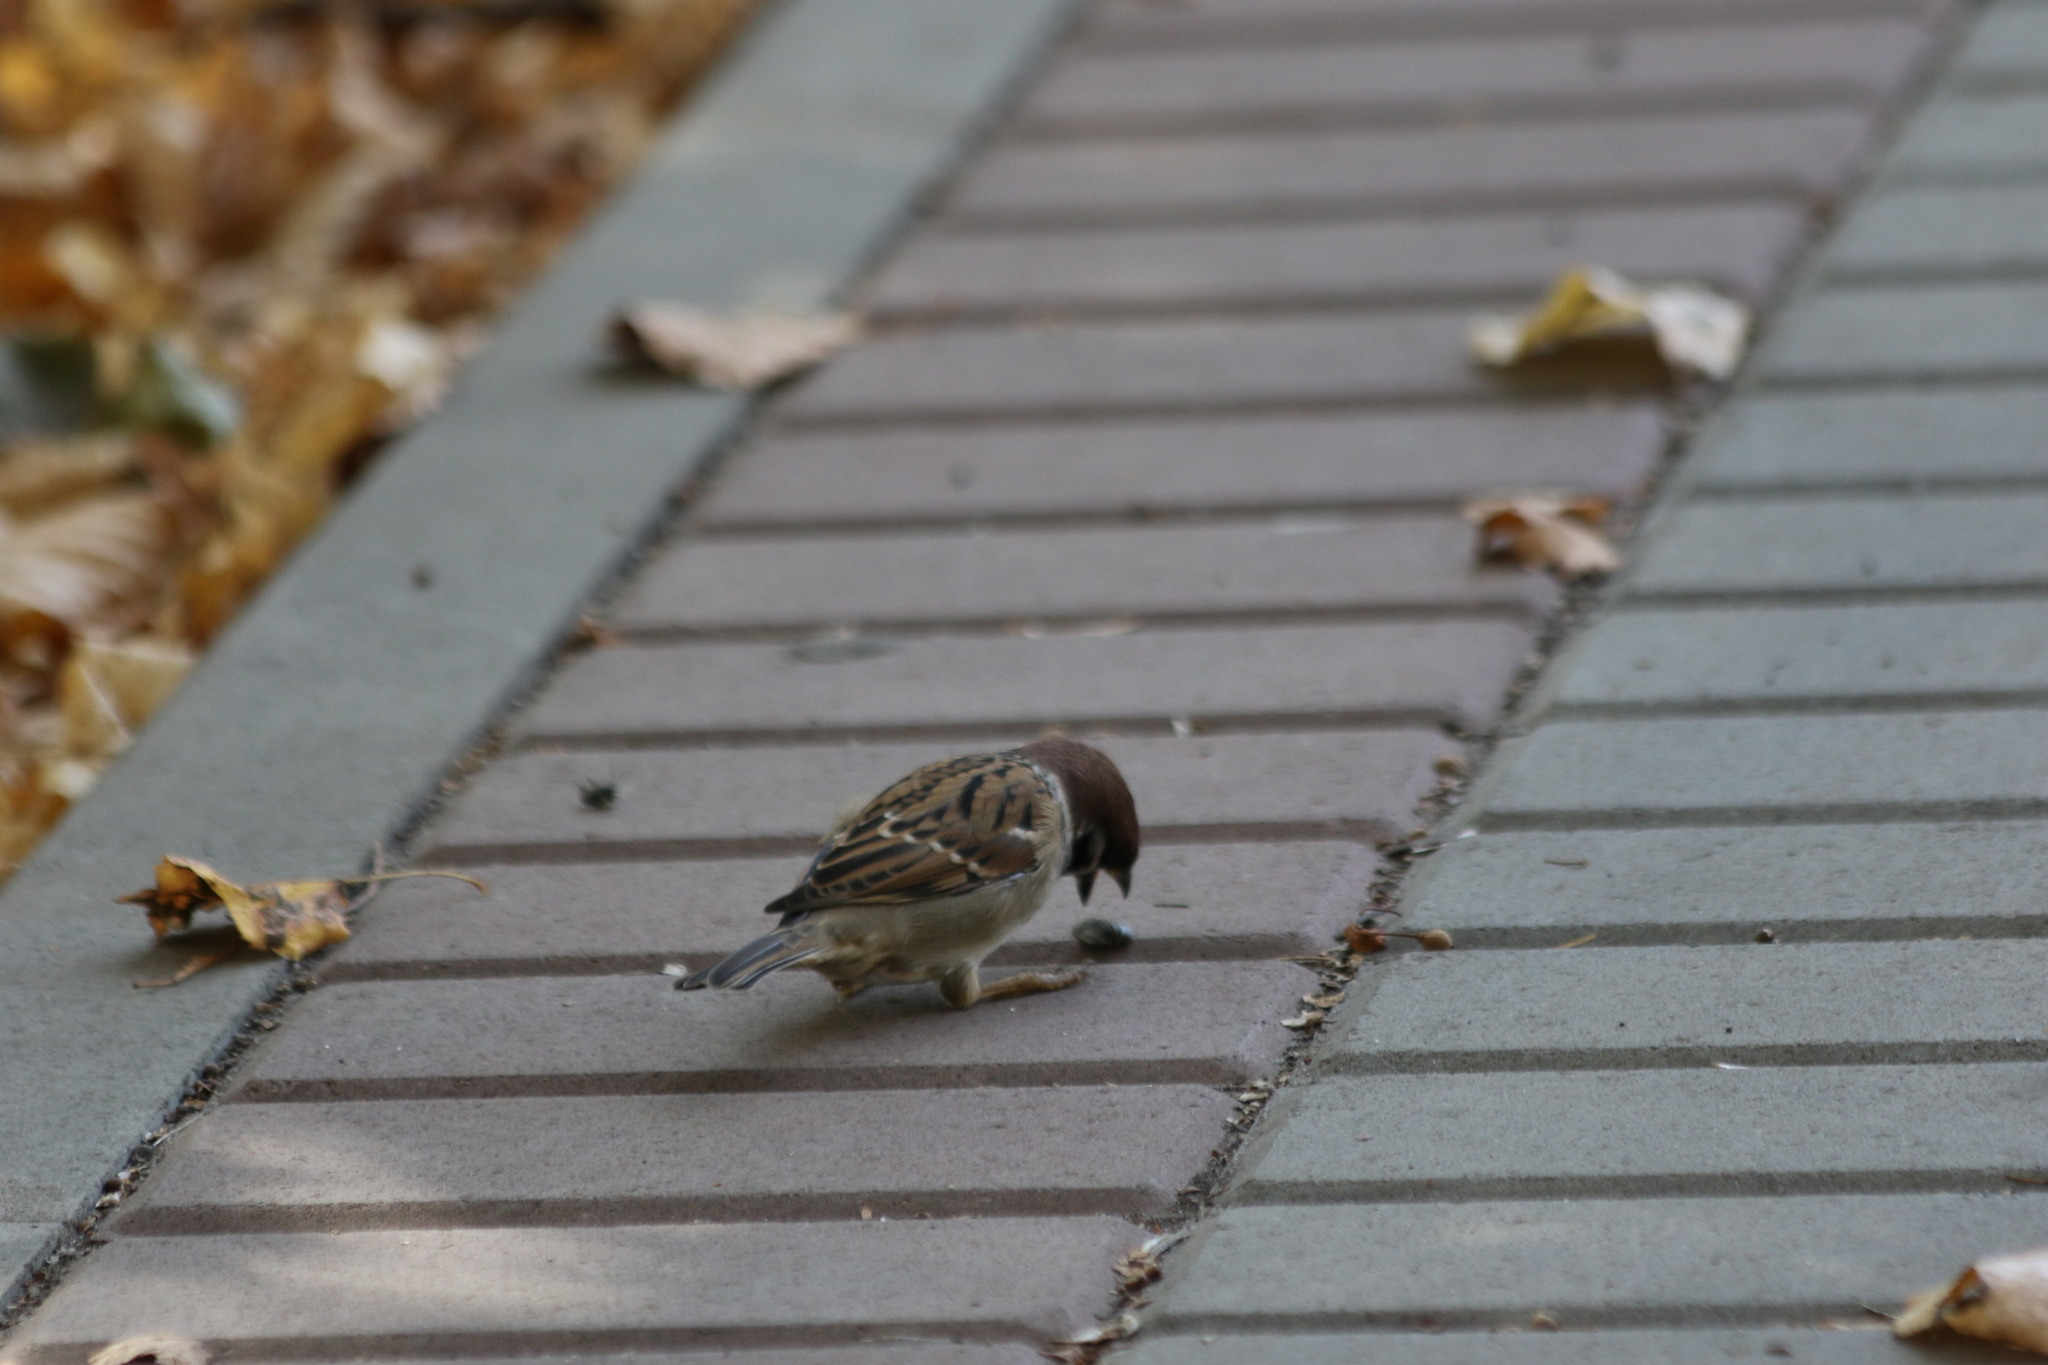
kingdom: Animalia
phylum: Chordata
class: Aves
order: Passeriformes
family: Passeridae
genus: Passer
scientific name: Passer montanus
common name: Eurasian tree sparrow
